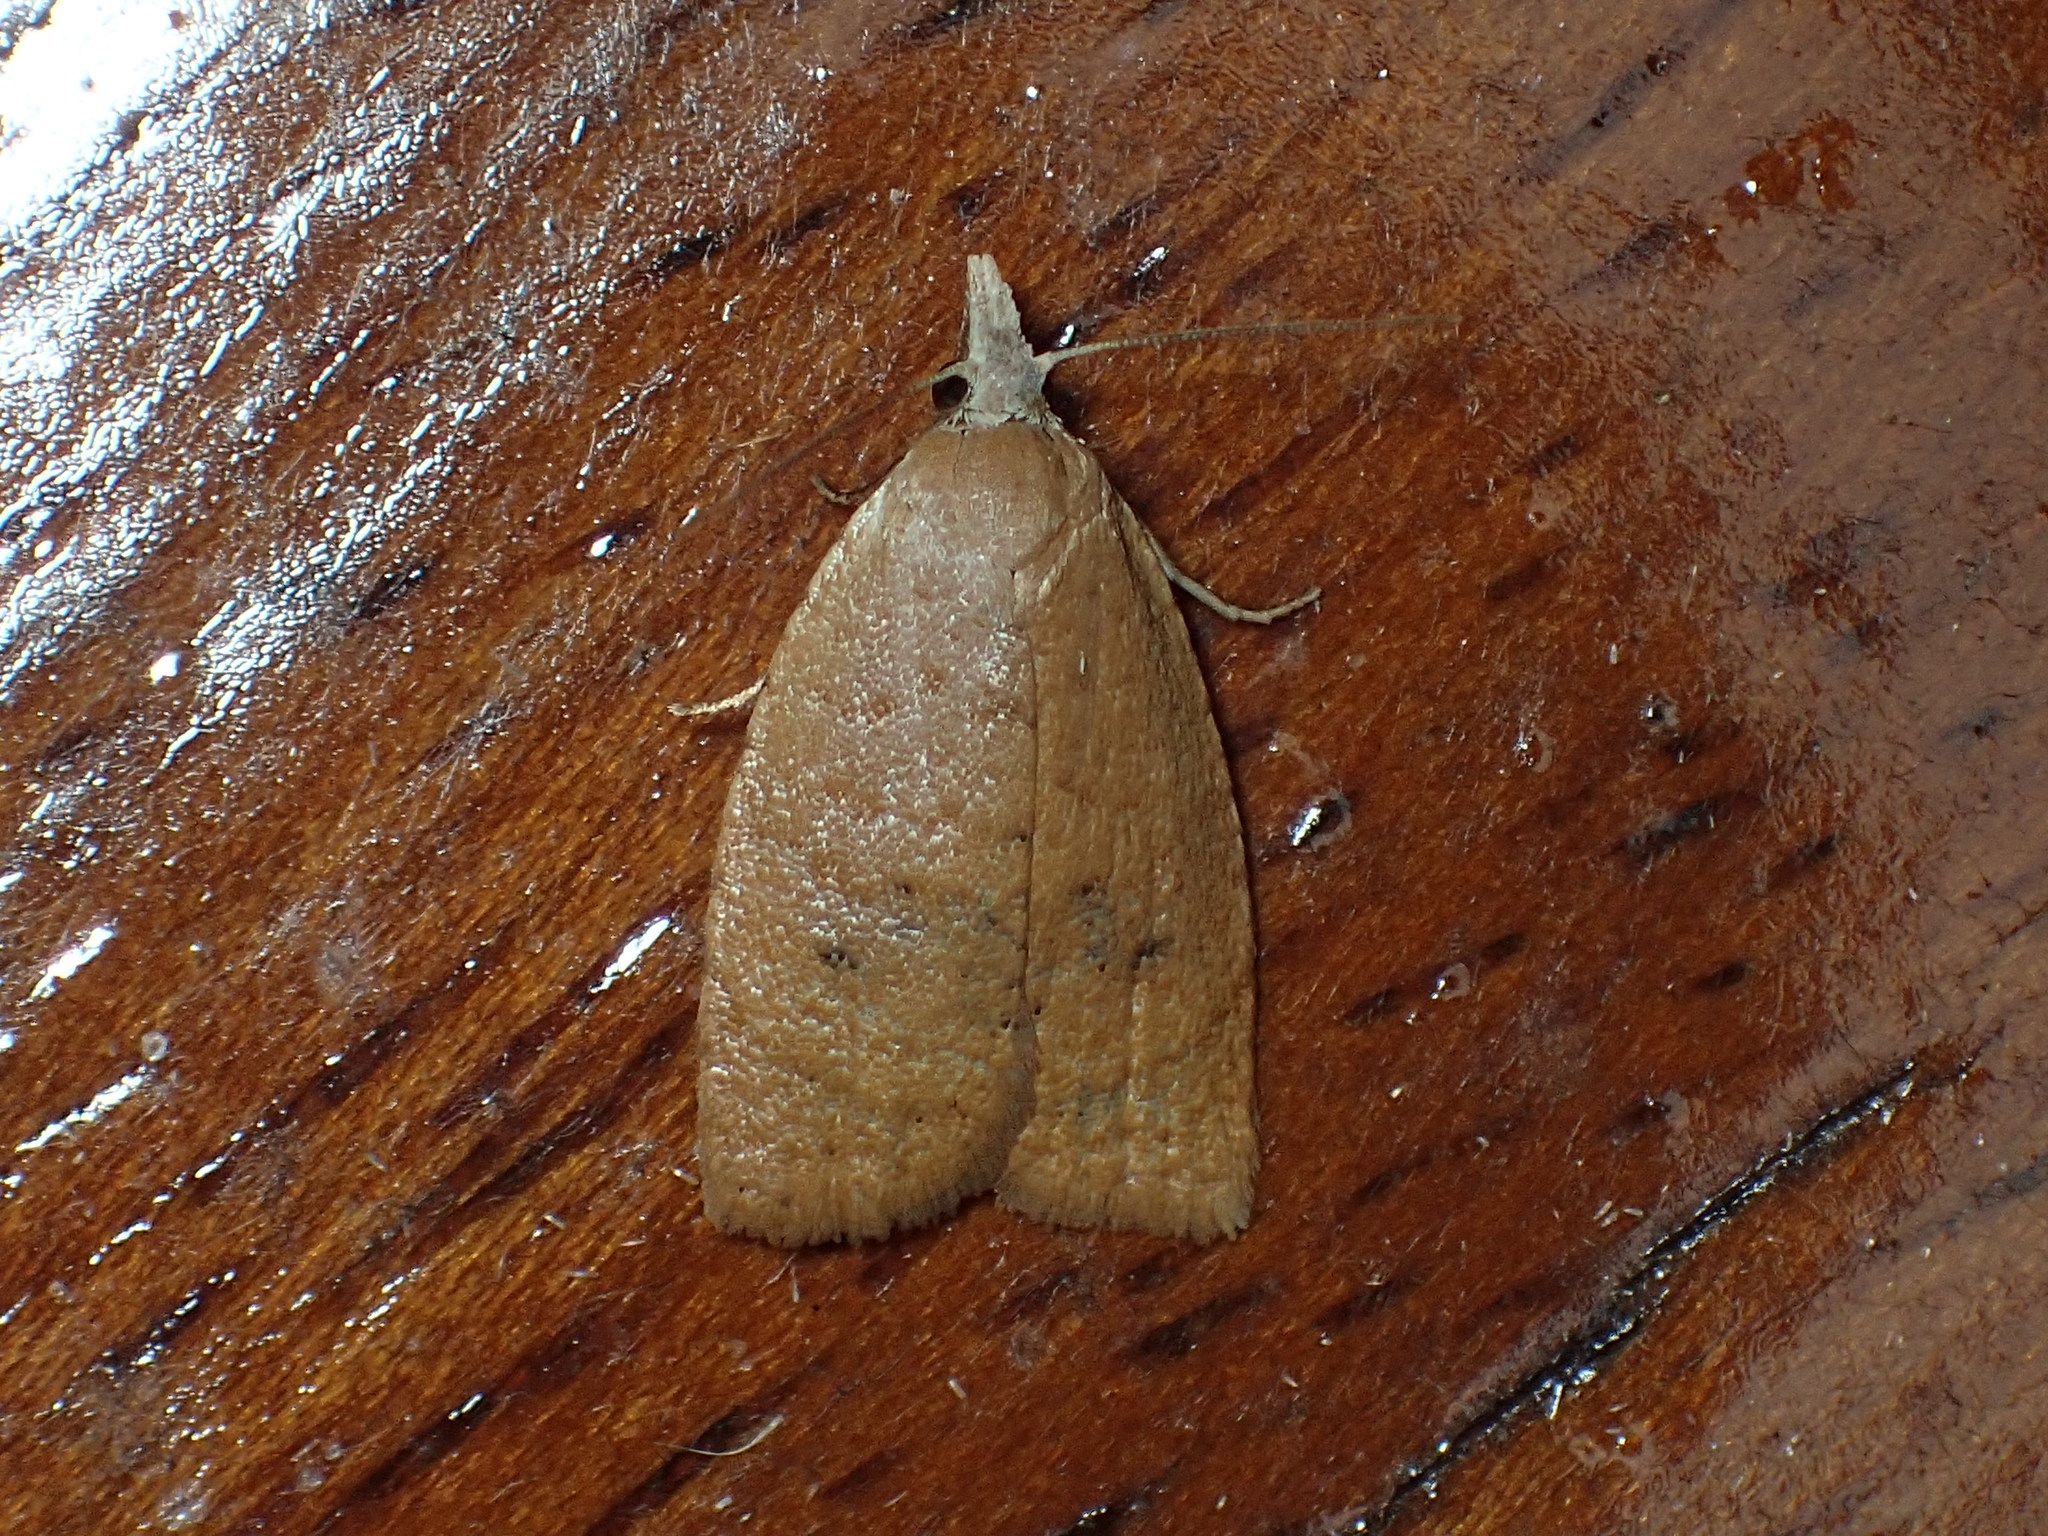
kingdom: Animalia
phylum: Arthropoda
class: Insecta
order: Lepidoptera
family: Tortricidae
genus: Sparganothoides
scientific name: Sparganothoides lentiginosana
